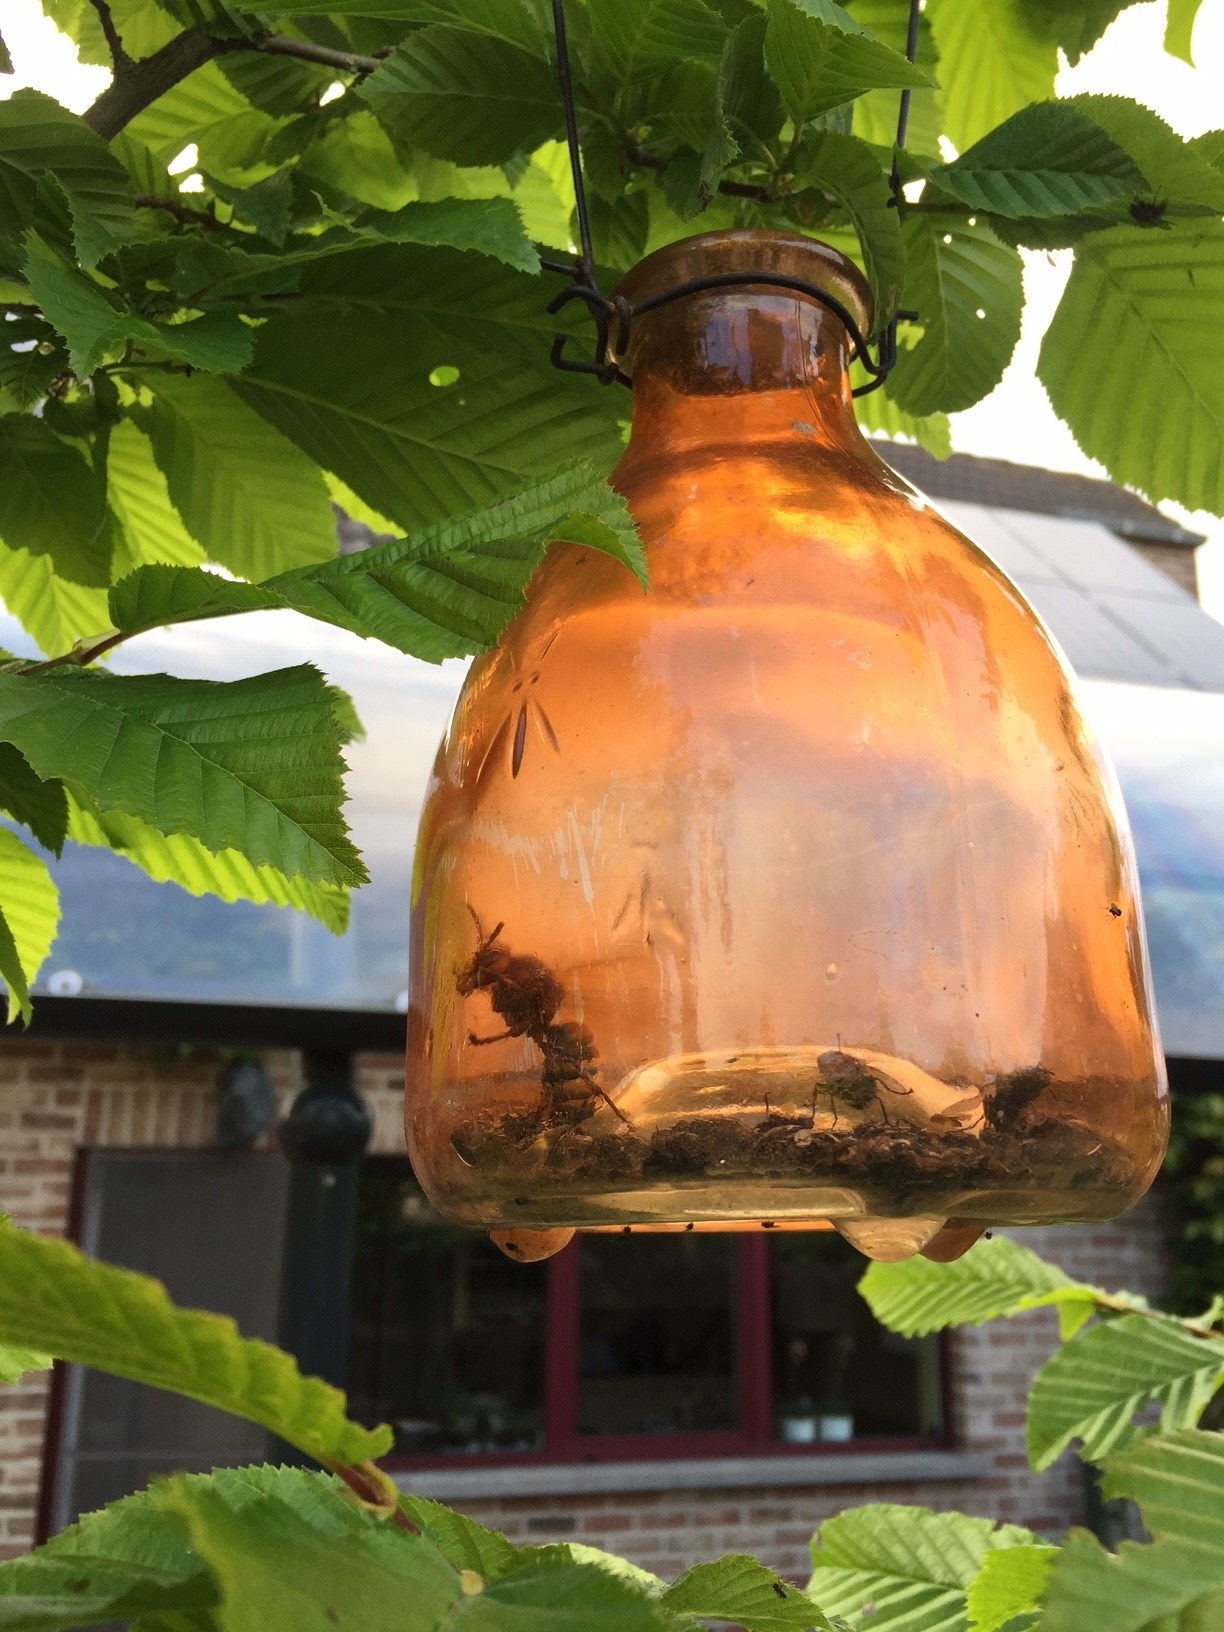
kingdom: Animalia
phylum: Arthropoda
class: Insecta
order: Hymenoptera
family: Vespidae
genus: Vespa
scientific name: Vespa crabro
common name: Hornet
